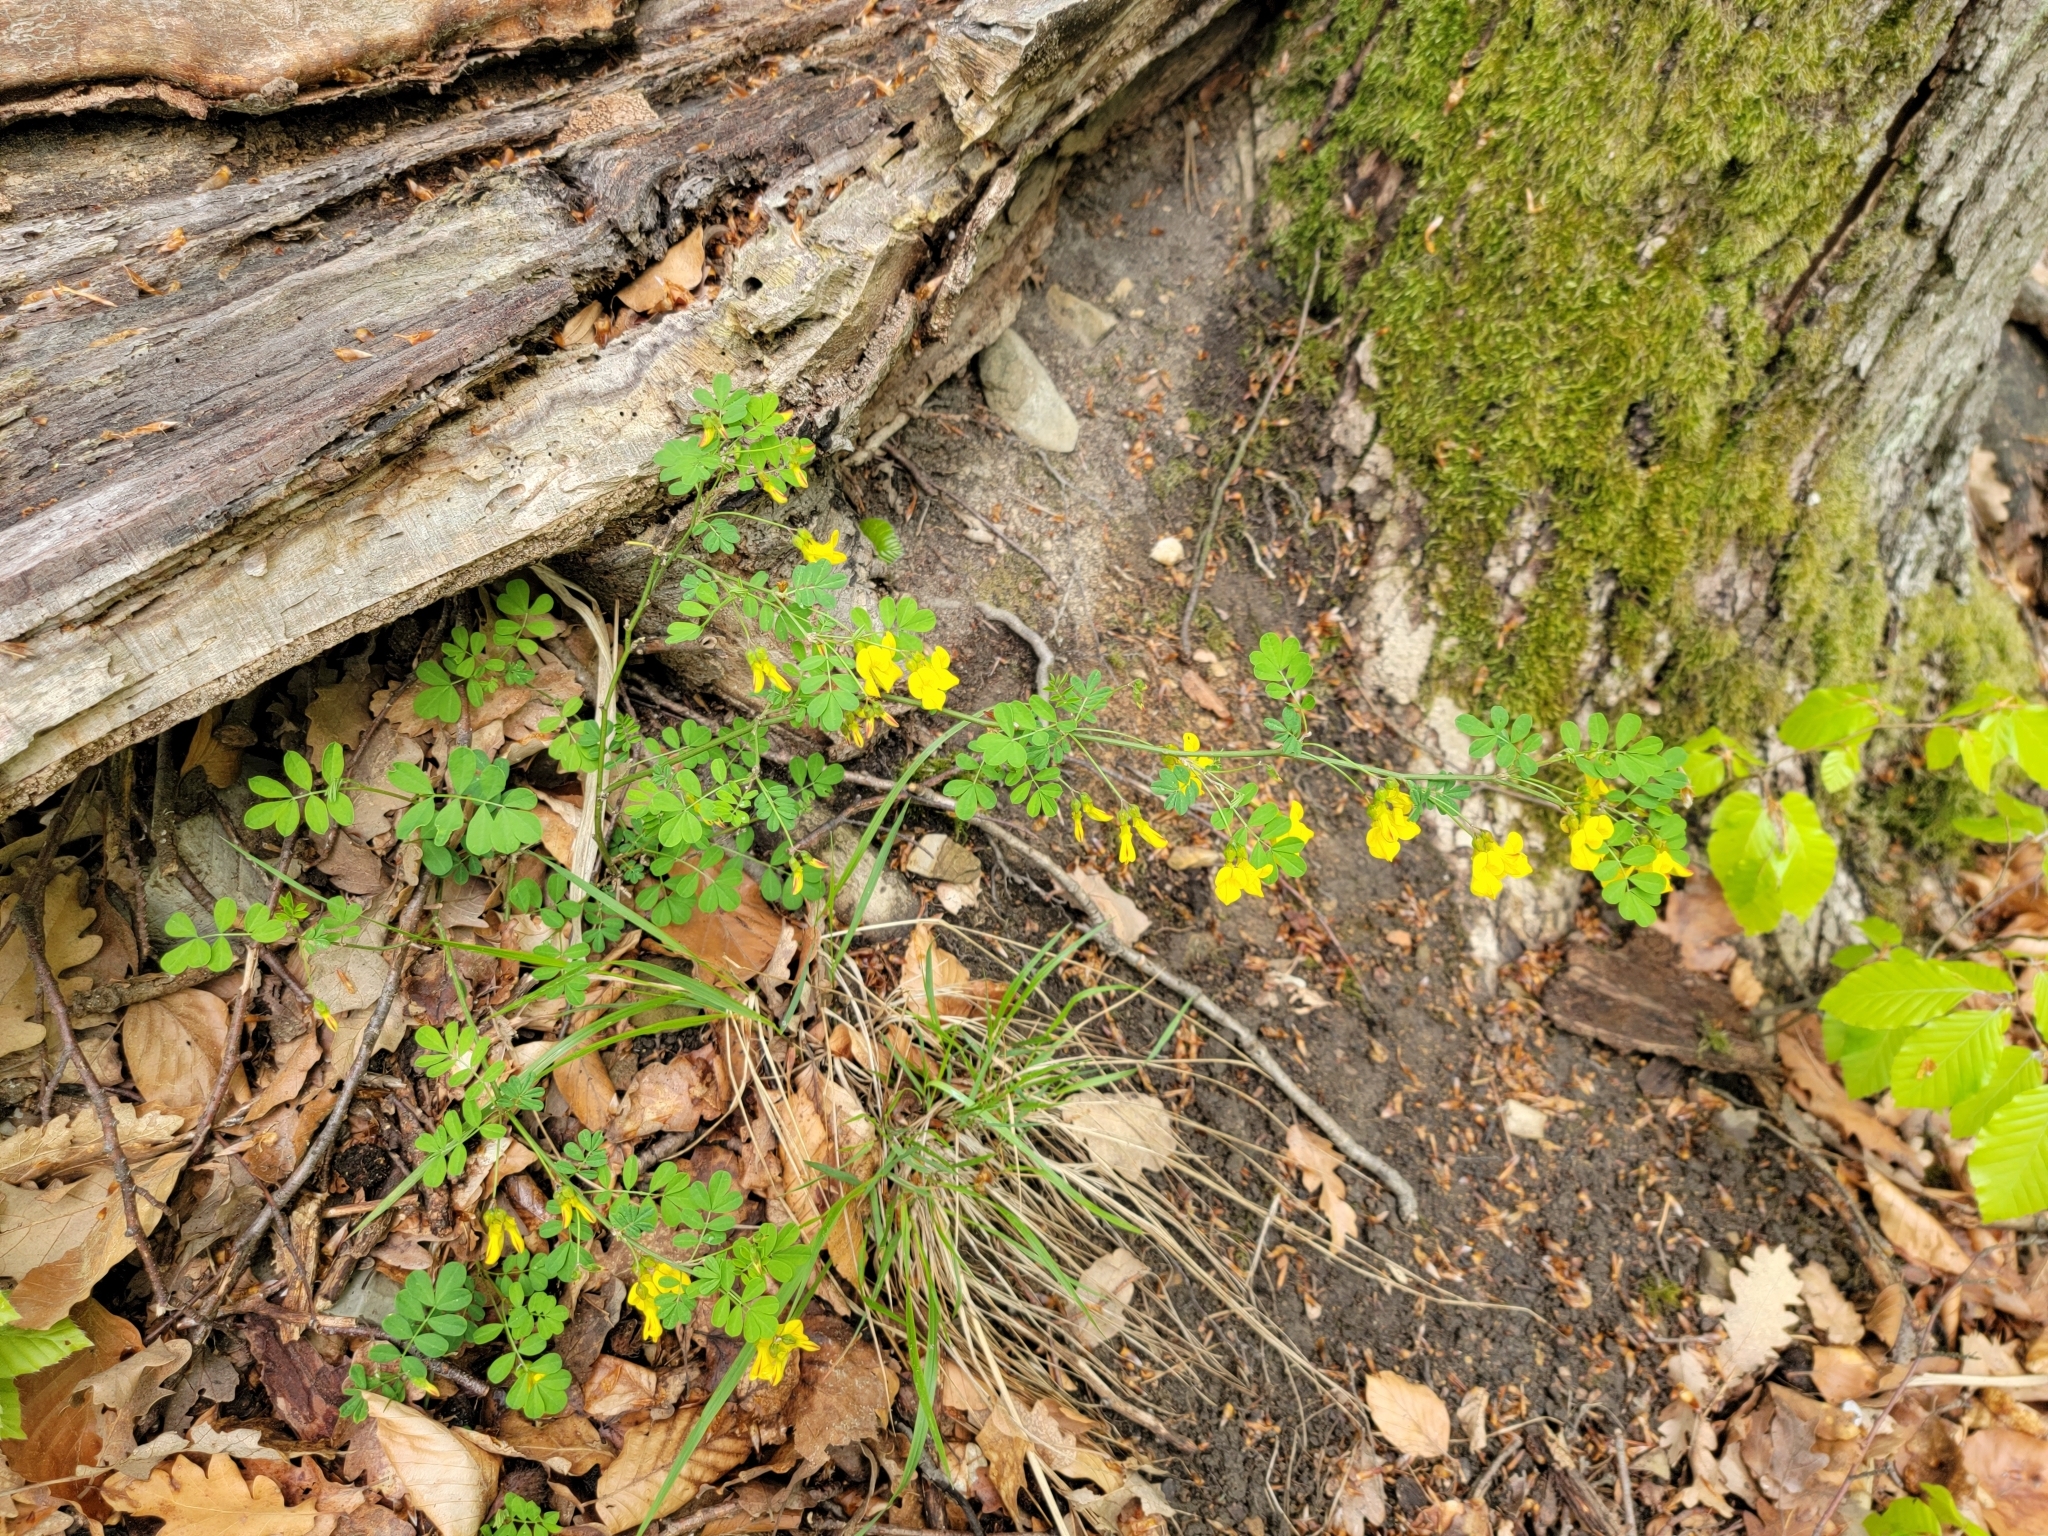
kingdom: Plantae
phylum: Tracheophyta
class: Magnoliopsida
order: Fabales
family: Fabaceae
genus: Hippocrepis
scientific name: Hippocrepis emerus
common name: Scorpion senna
